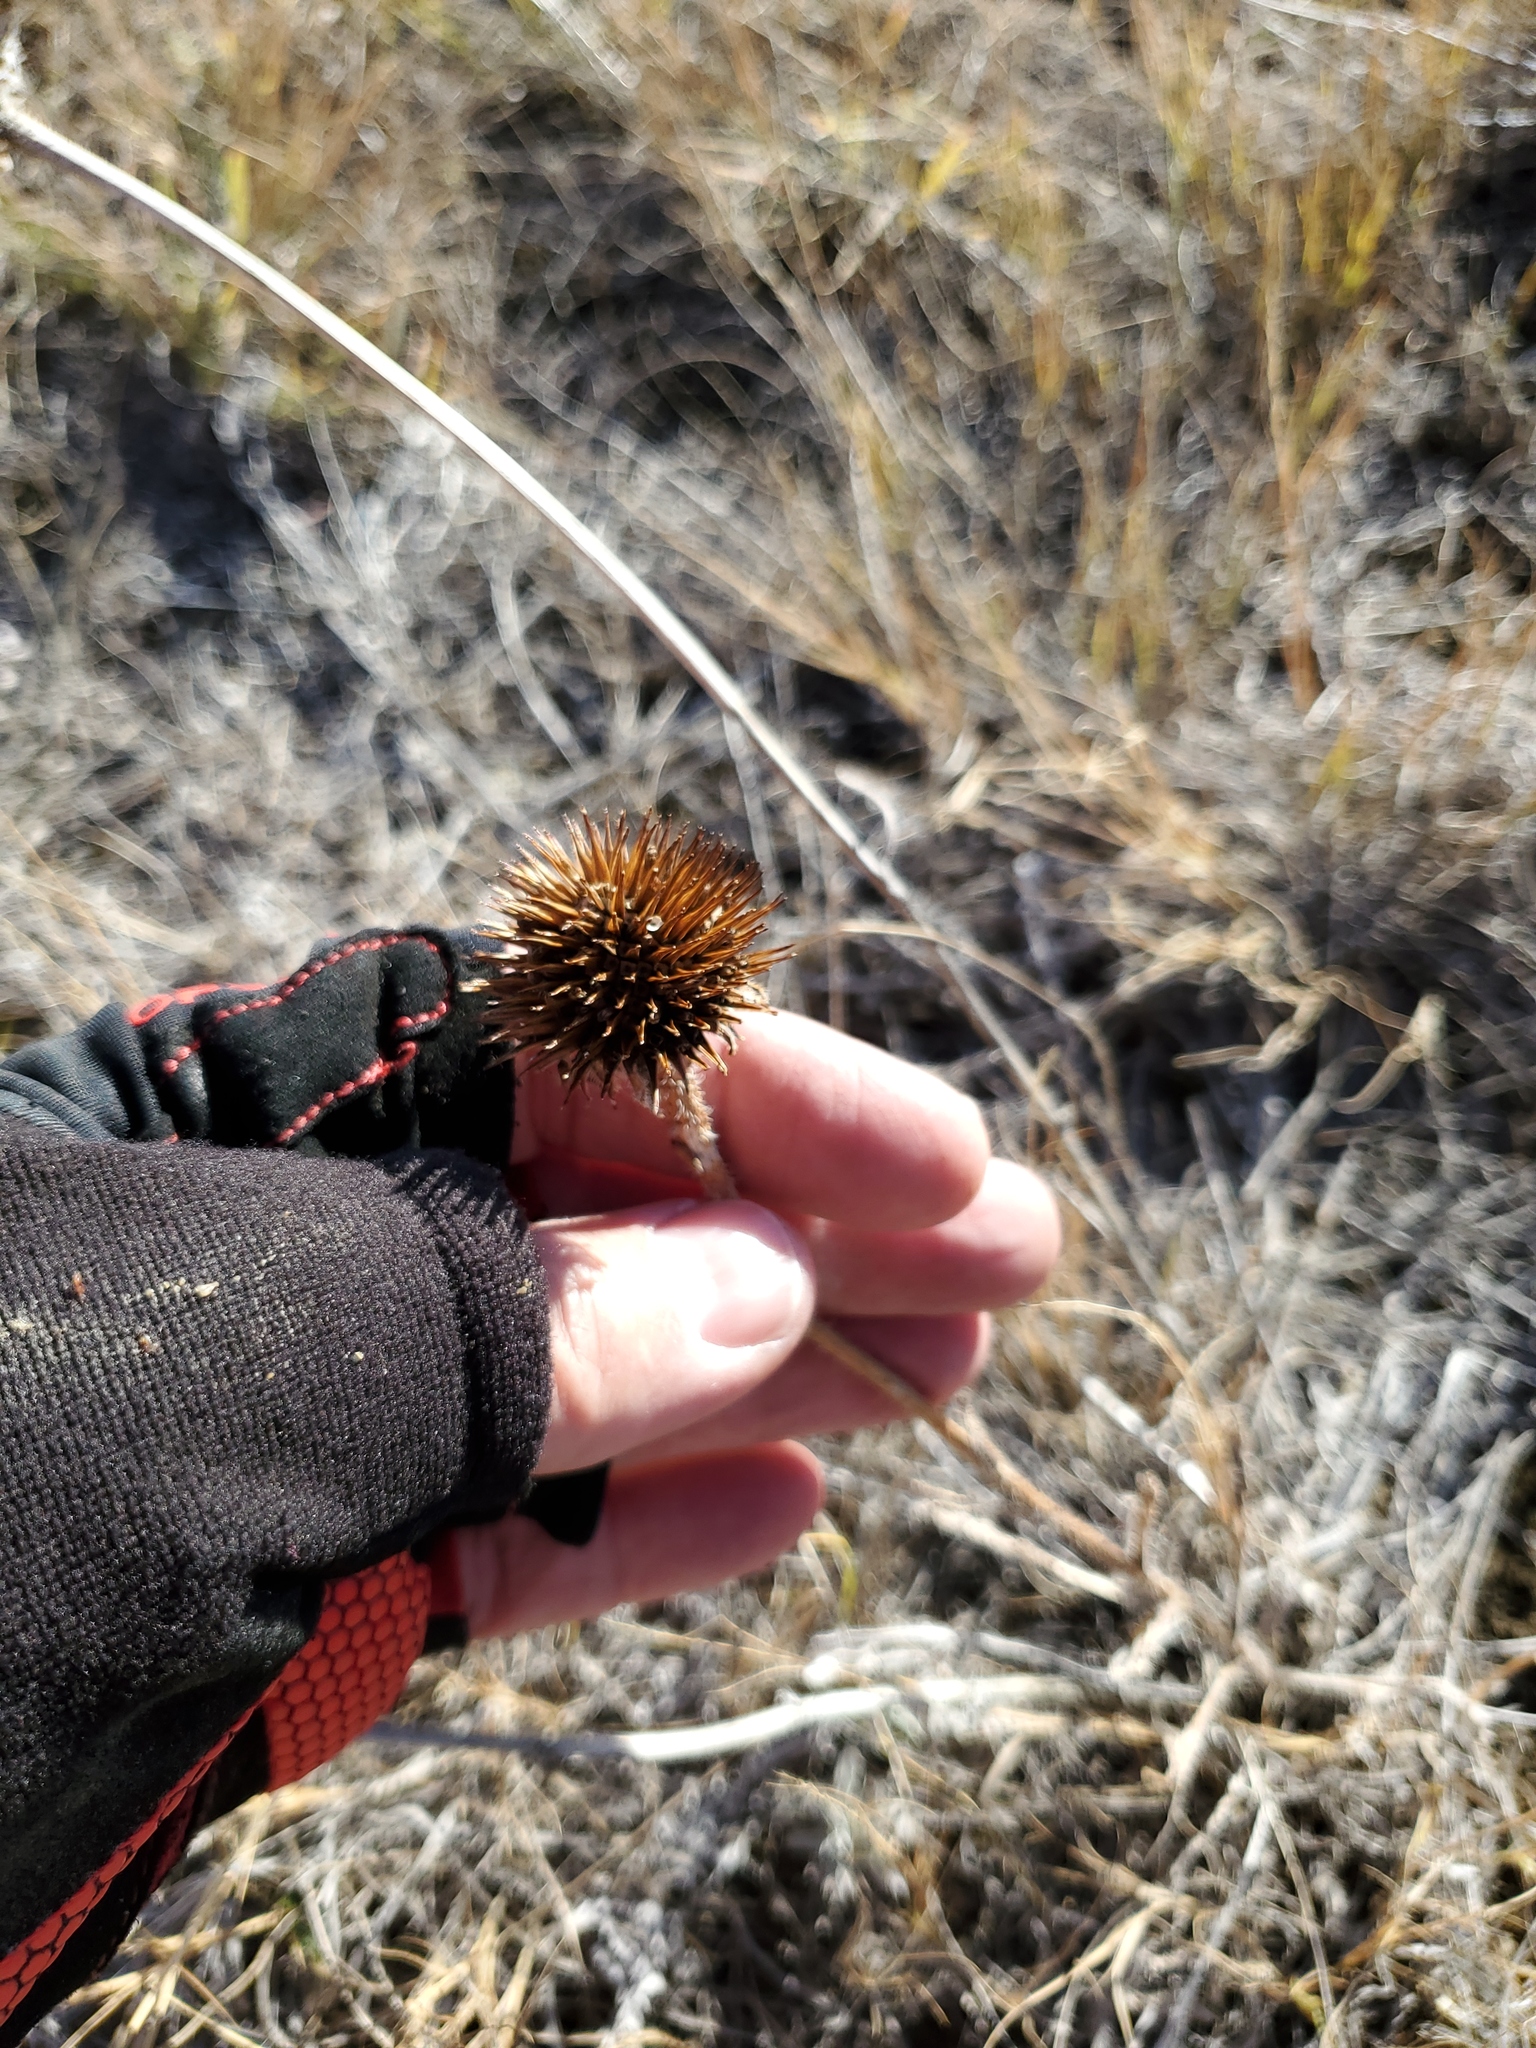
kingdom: Plantae
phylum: Tracheophyta
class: Magnoliopsida
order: Asterales
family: Asteraceae
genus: Echinacea
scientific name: Echinacea angustifolia
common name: Black-sampson echinacea
